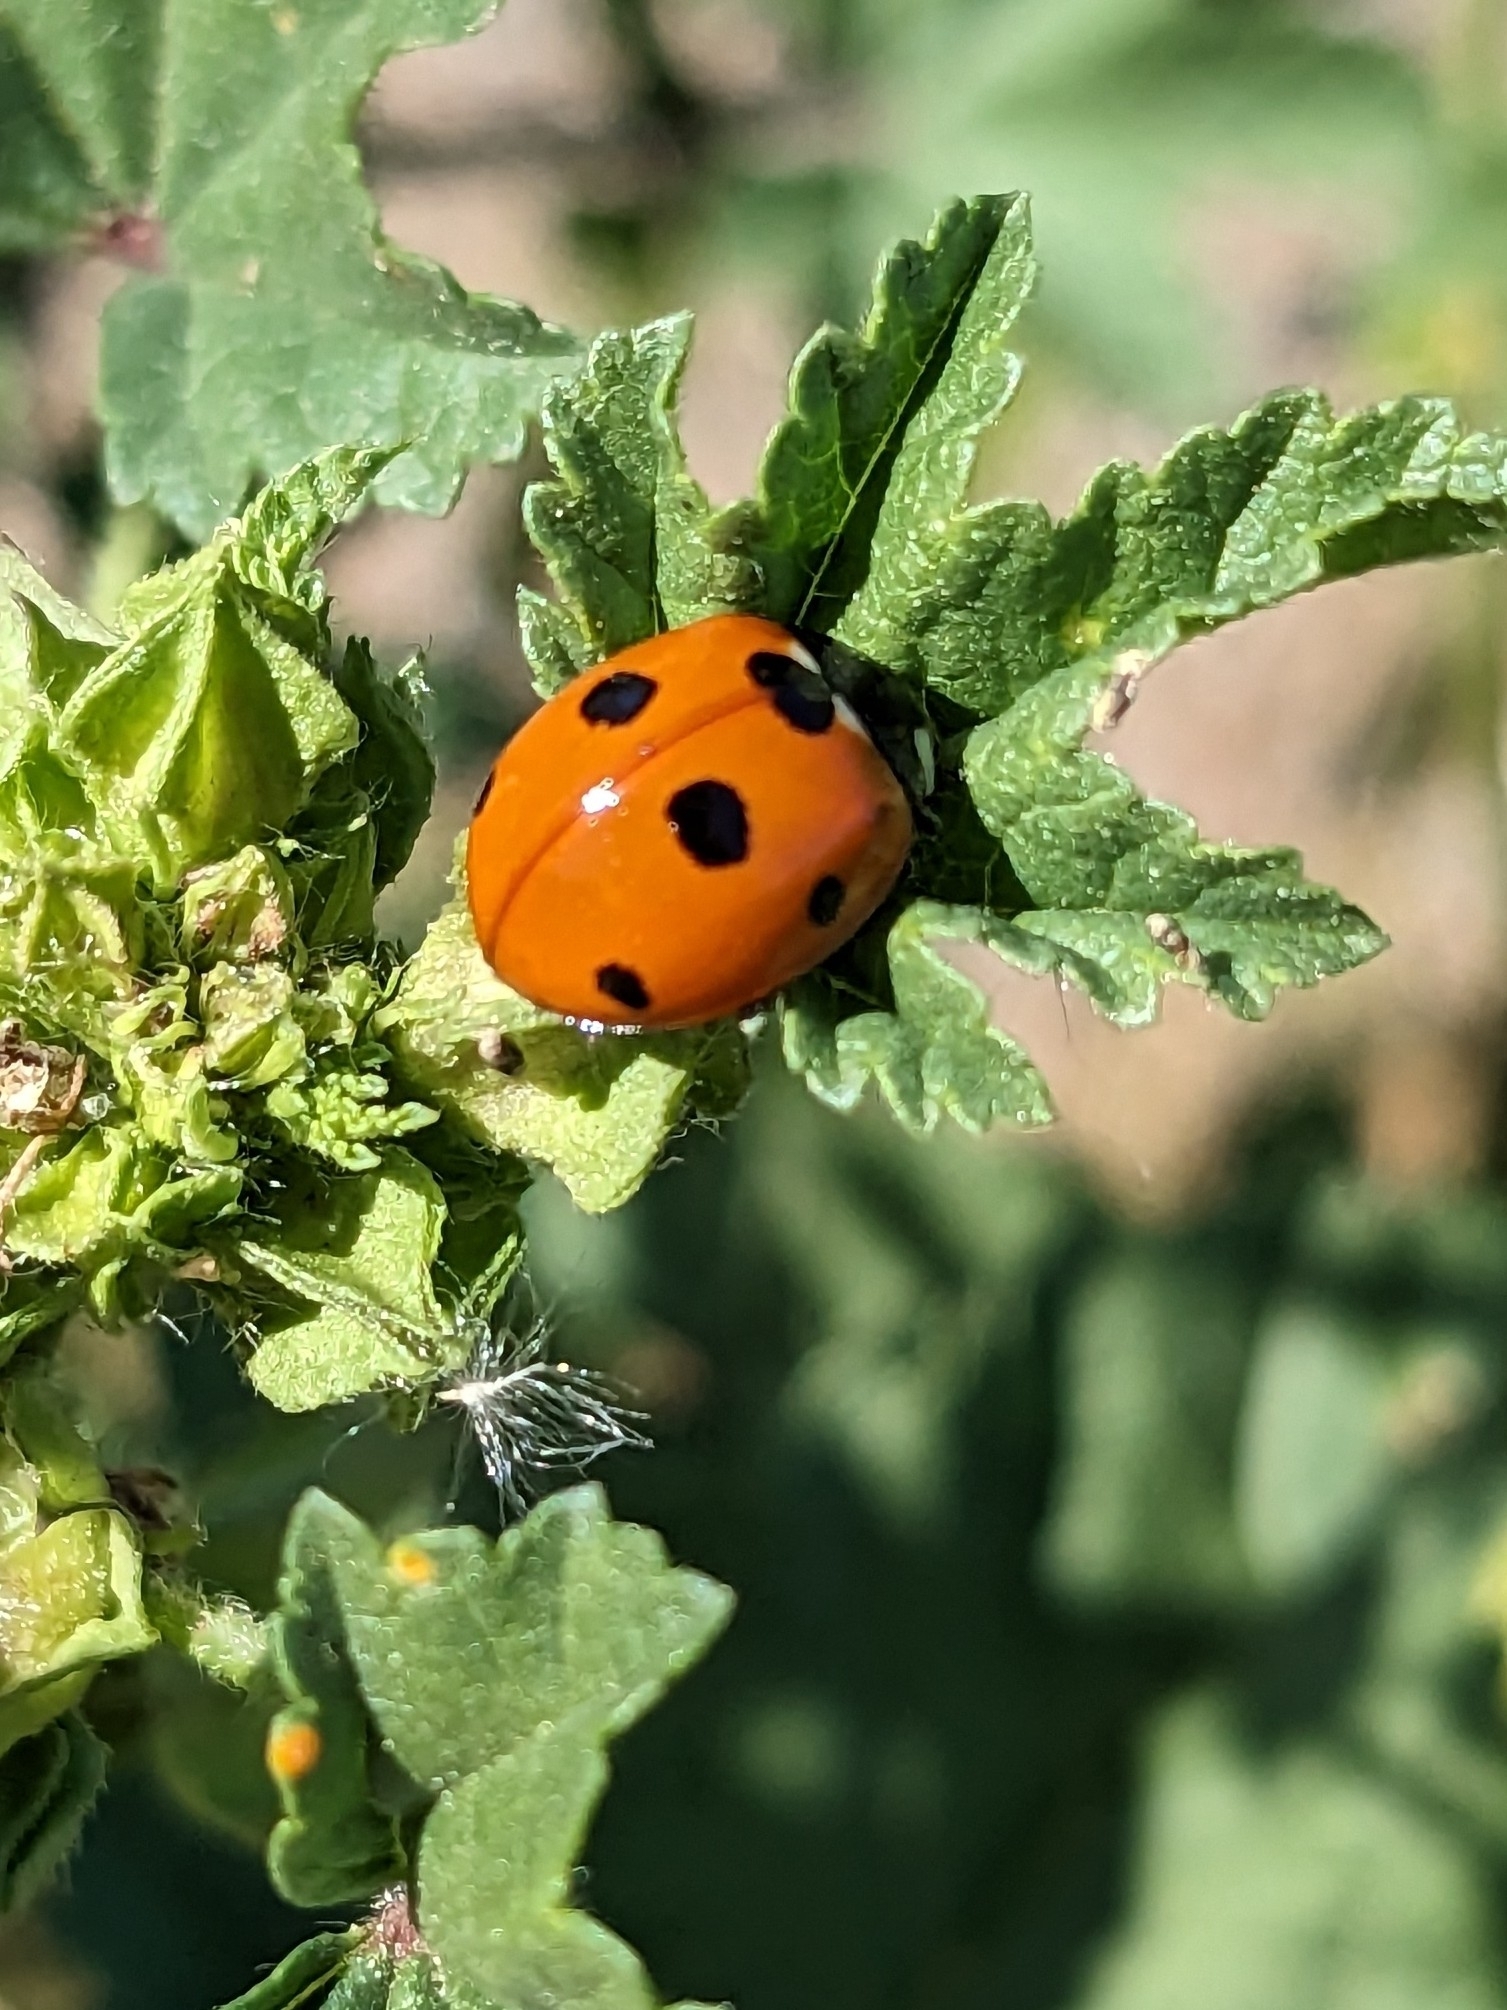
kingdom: Animalia
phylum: Arthropoda
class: Insecta
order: Coleoptera
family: Coccinellidae
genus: Coccinella
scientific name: Coccinella septempunctata
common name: Sevenspotted lady beetle
